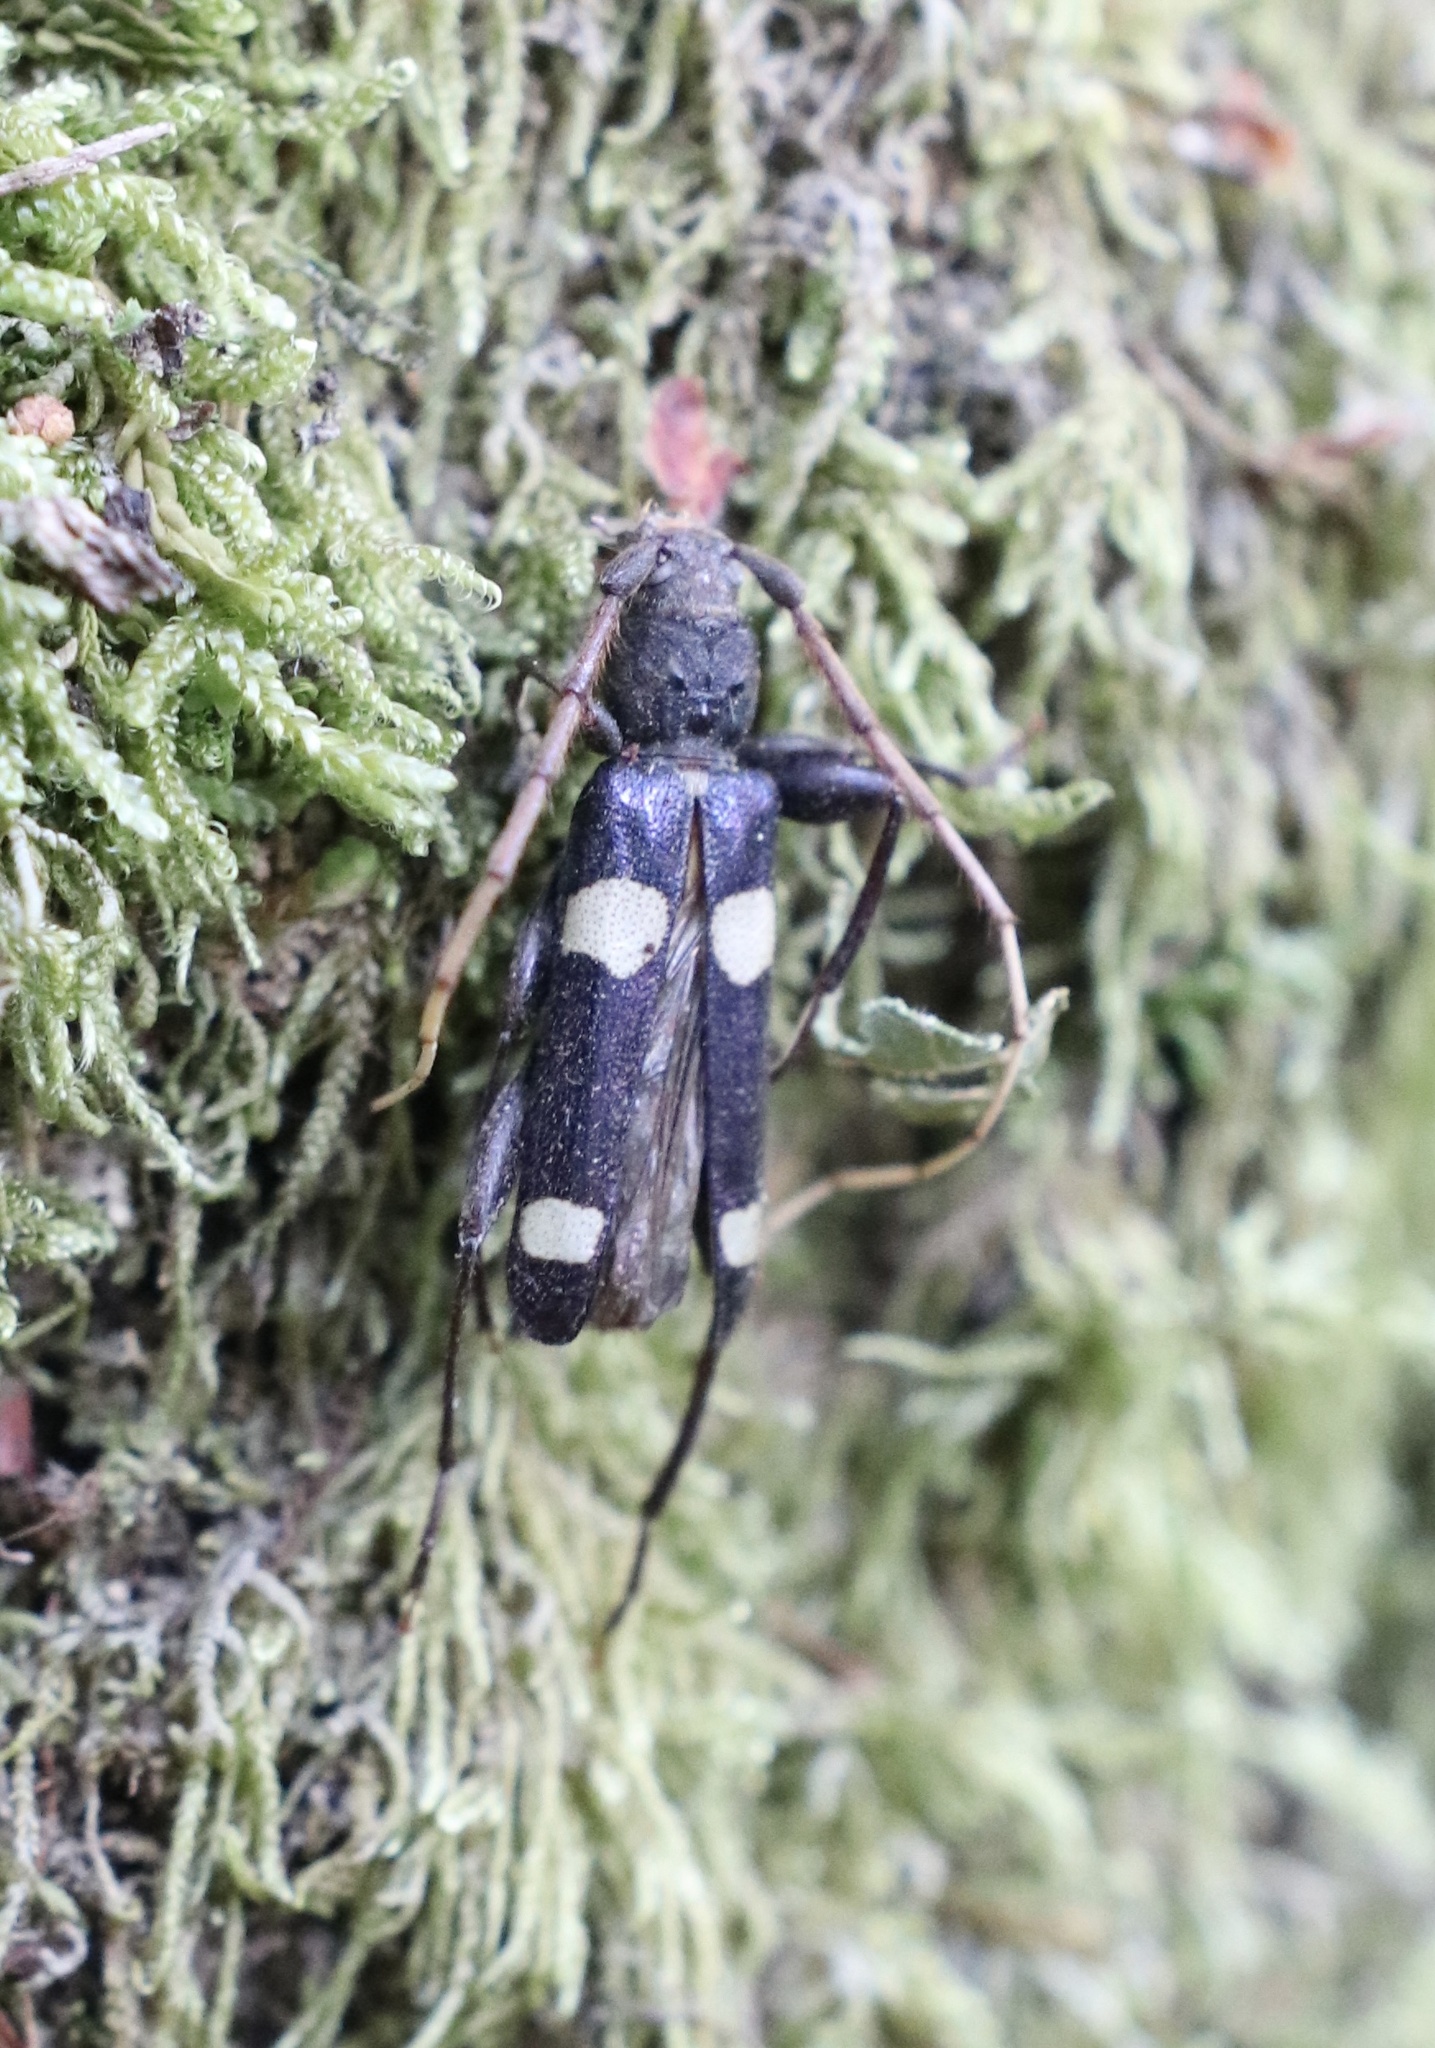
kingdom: Animalia
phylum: Arthropoda
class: Insecta
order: Coleoptera
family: Cerambycidae
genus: Maripanus
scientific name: Maripanus quadrimaculatus
